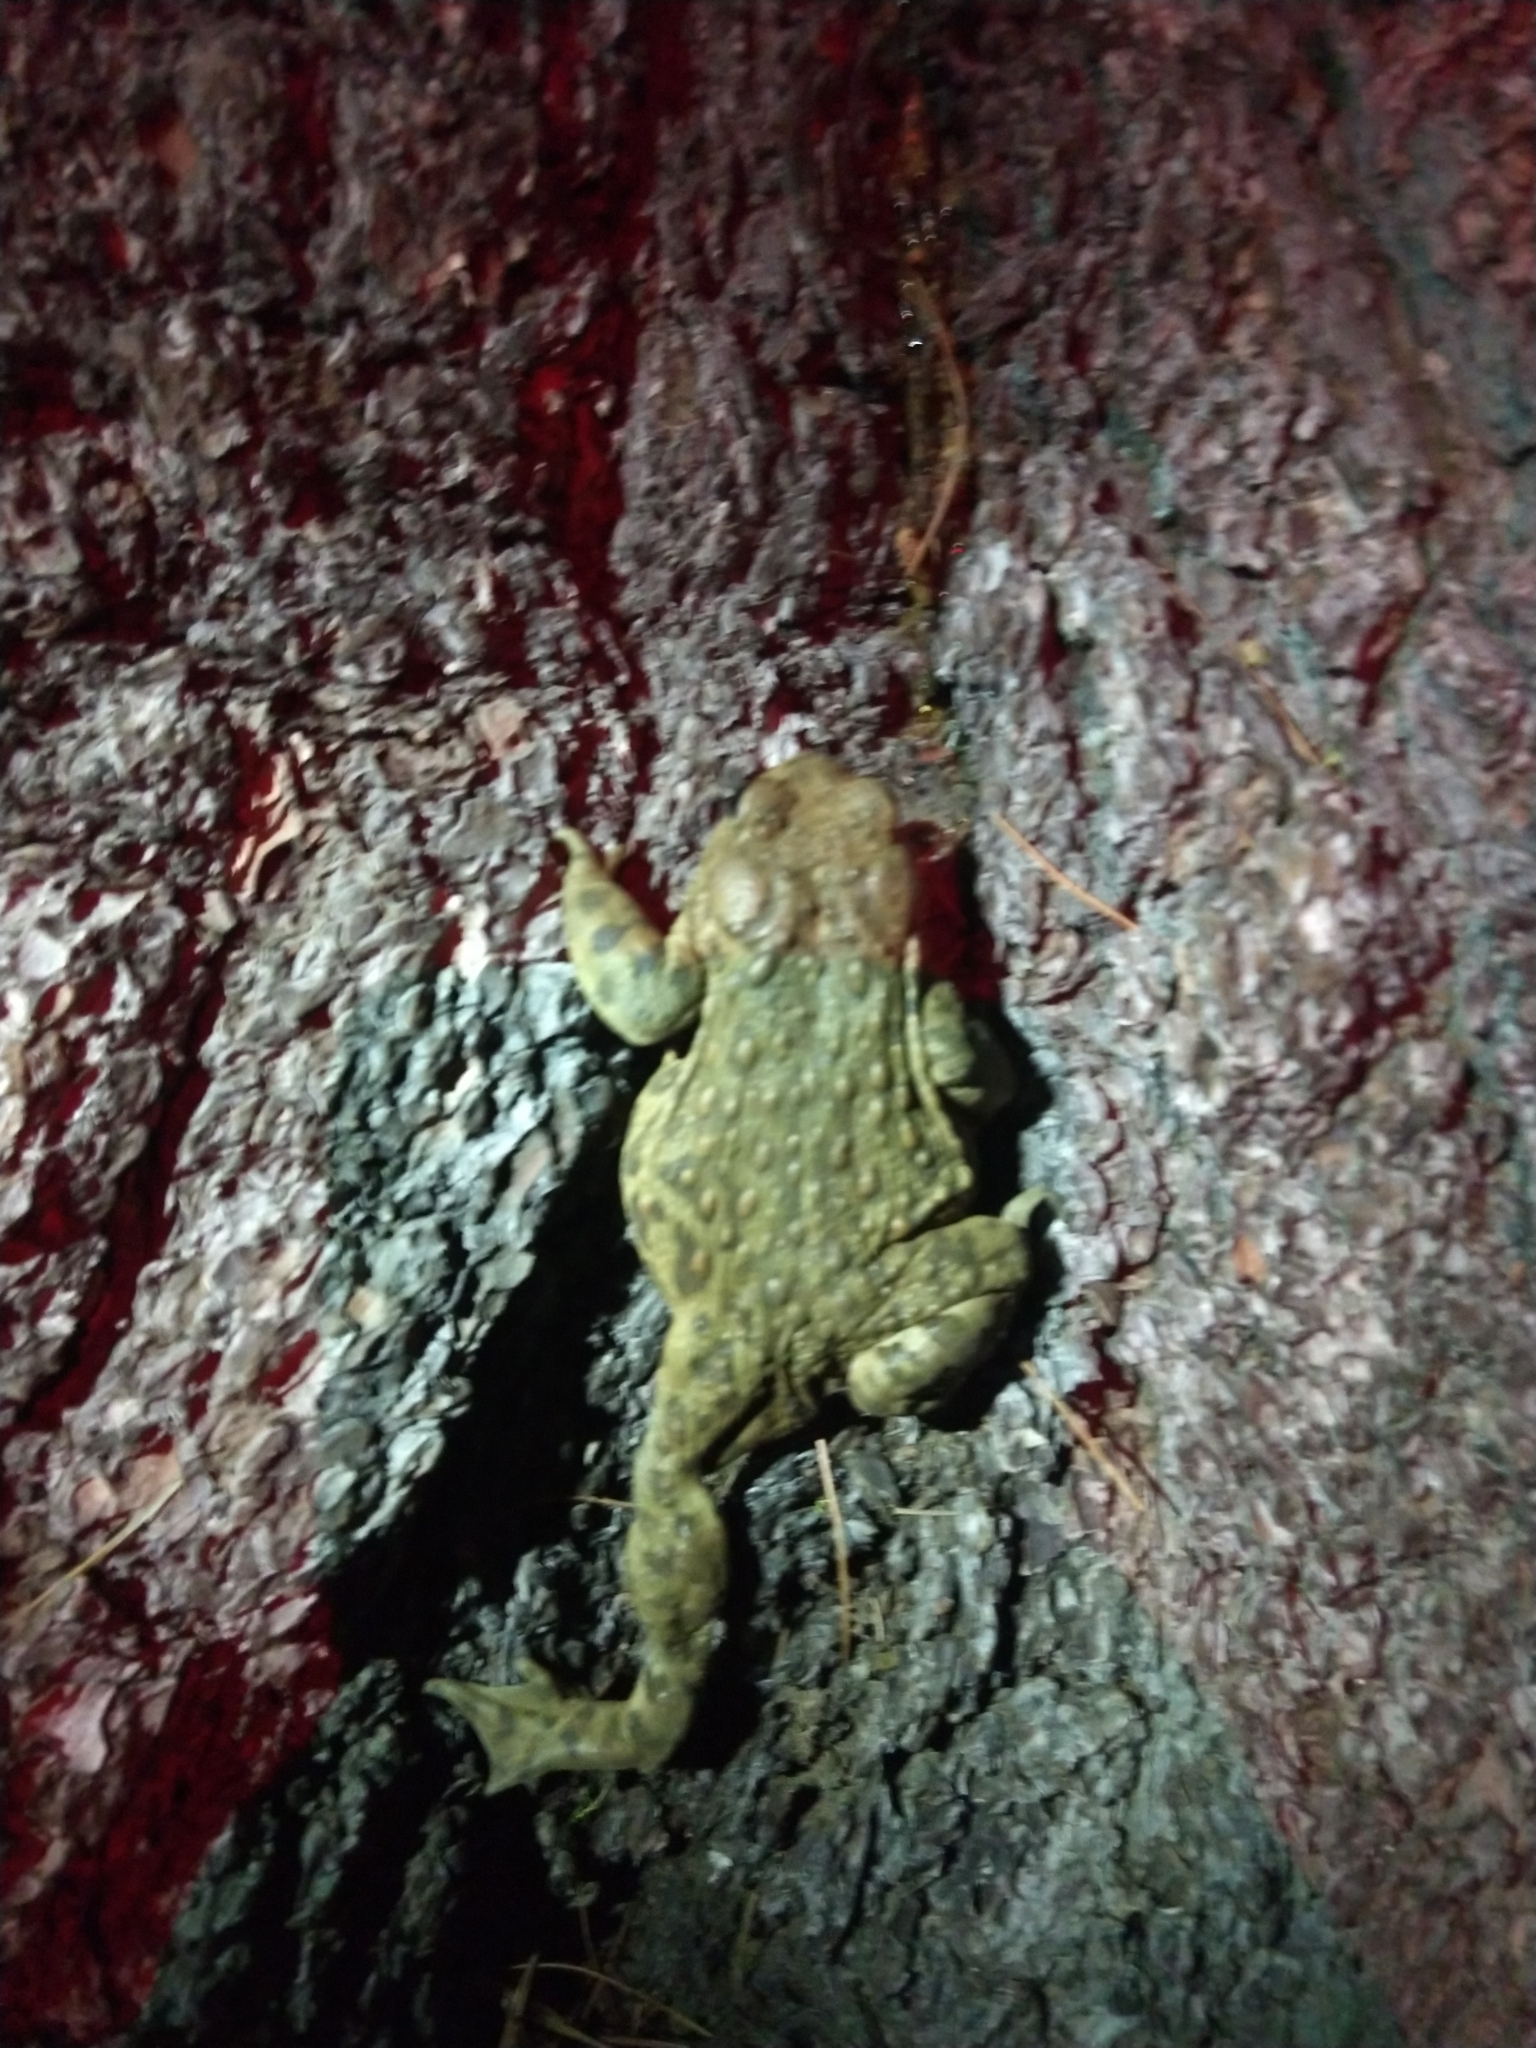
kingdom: Animalia
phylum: Chordata
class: Amphibia
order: Anura
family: Bufonidae
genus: Anaxyrus
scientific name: Anaxyrus boreas
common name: Western toad
